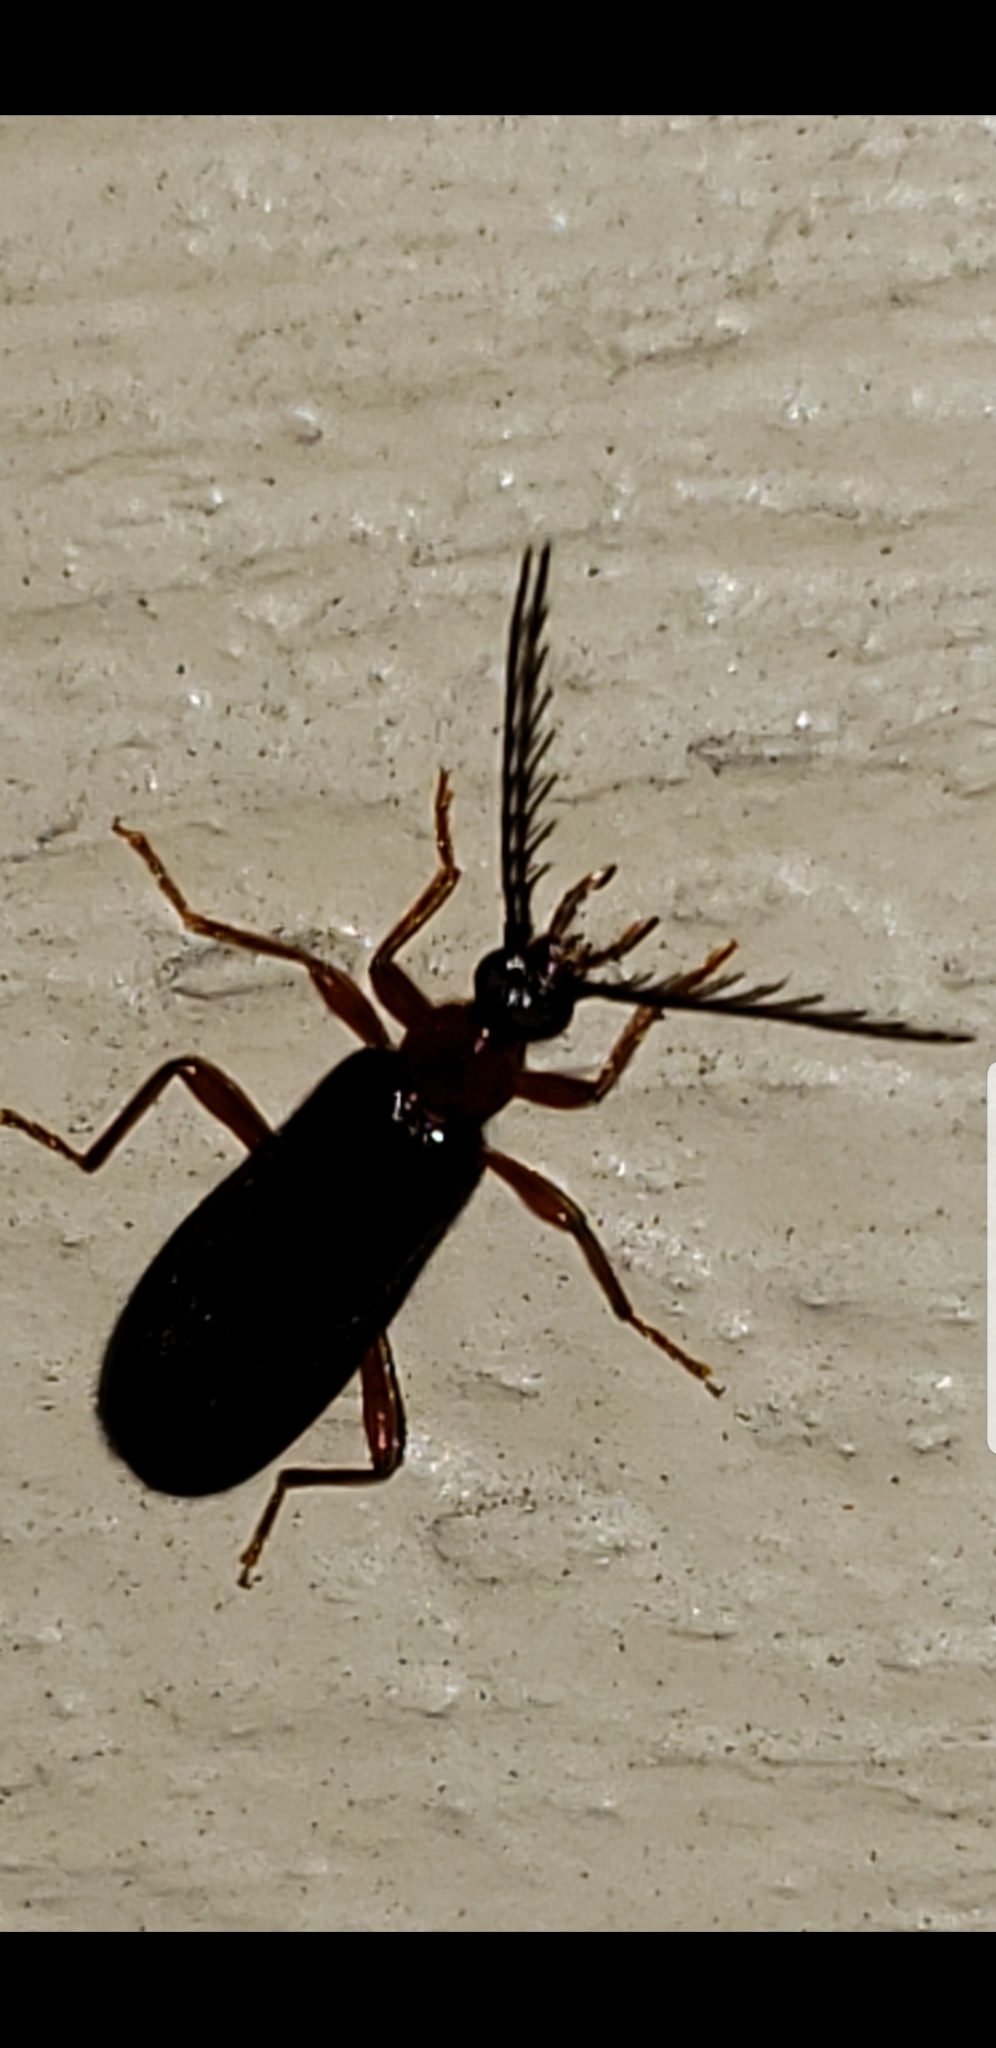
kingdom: Animalia
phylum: Arthropoda
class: Insecta
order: Coleoptera
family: Pyrochroidae
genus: Dendroides
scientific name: Dendroides canadensis
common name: Canada fire-colored beetle
